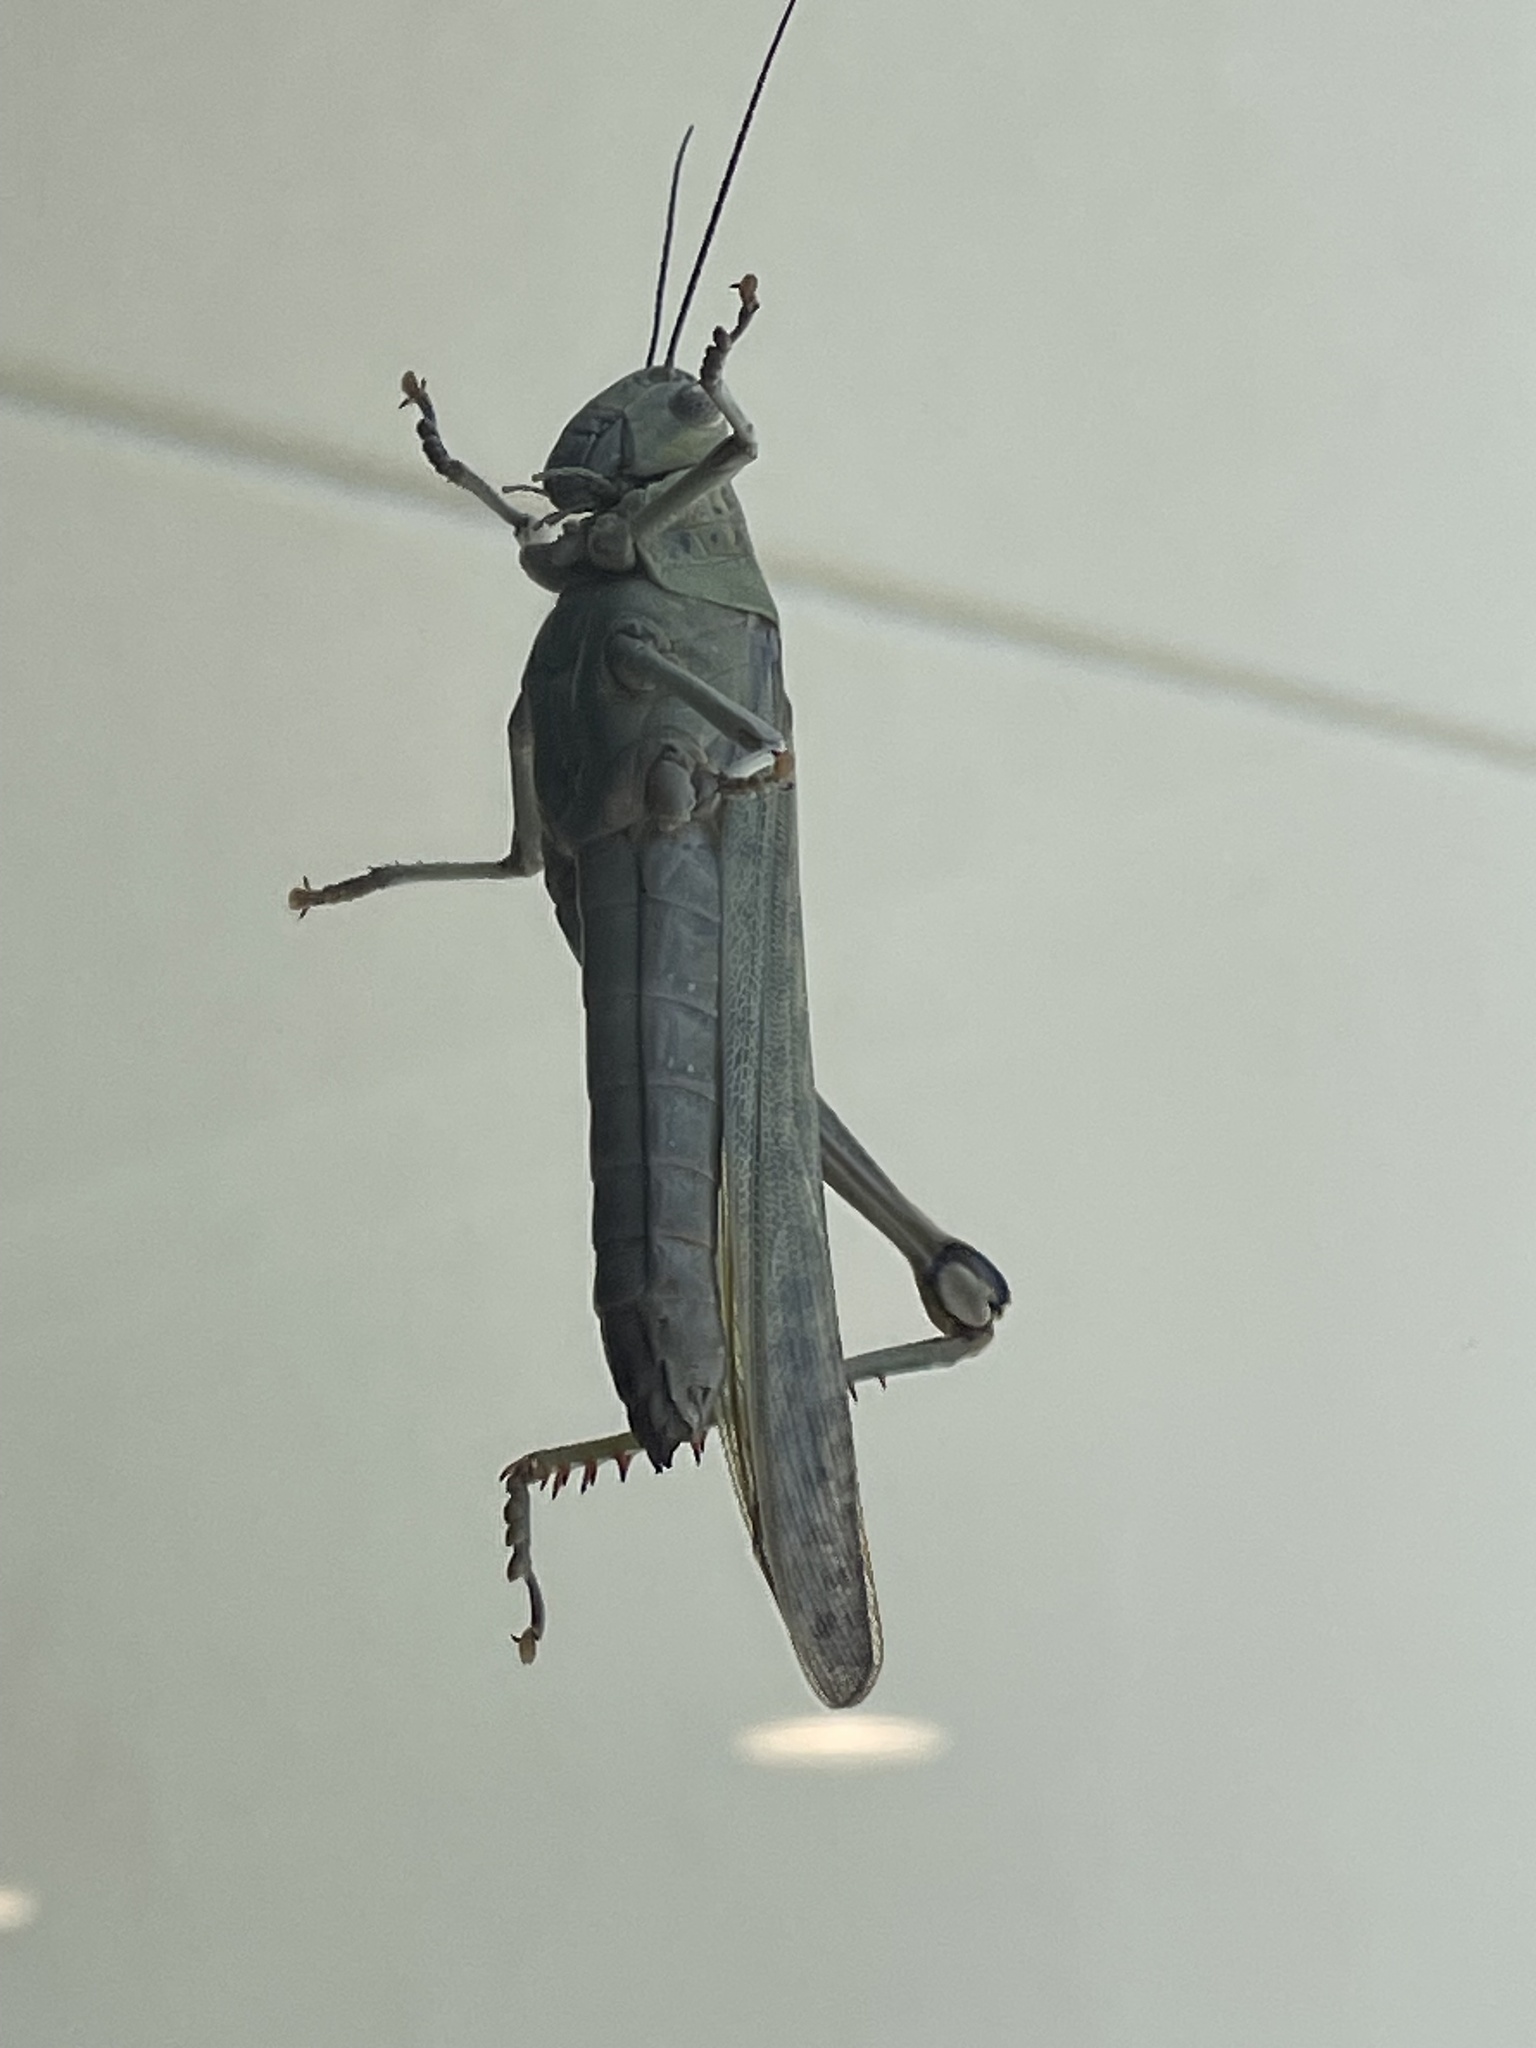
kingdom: Animalia
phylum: Arthropoda
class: Insecta
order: Orthoptera
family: Acrididae
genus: Valanga
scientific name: Valanga irregularis
